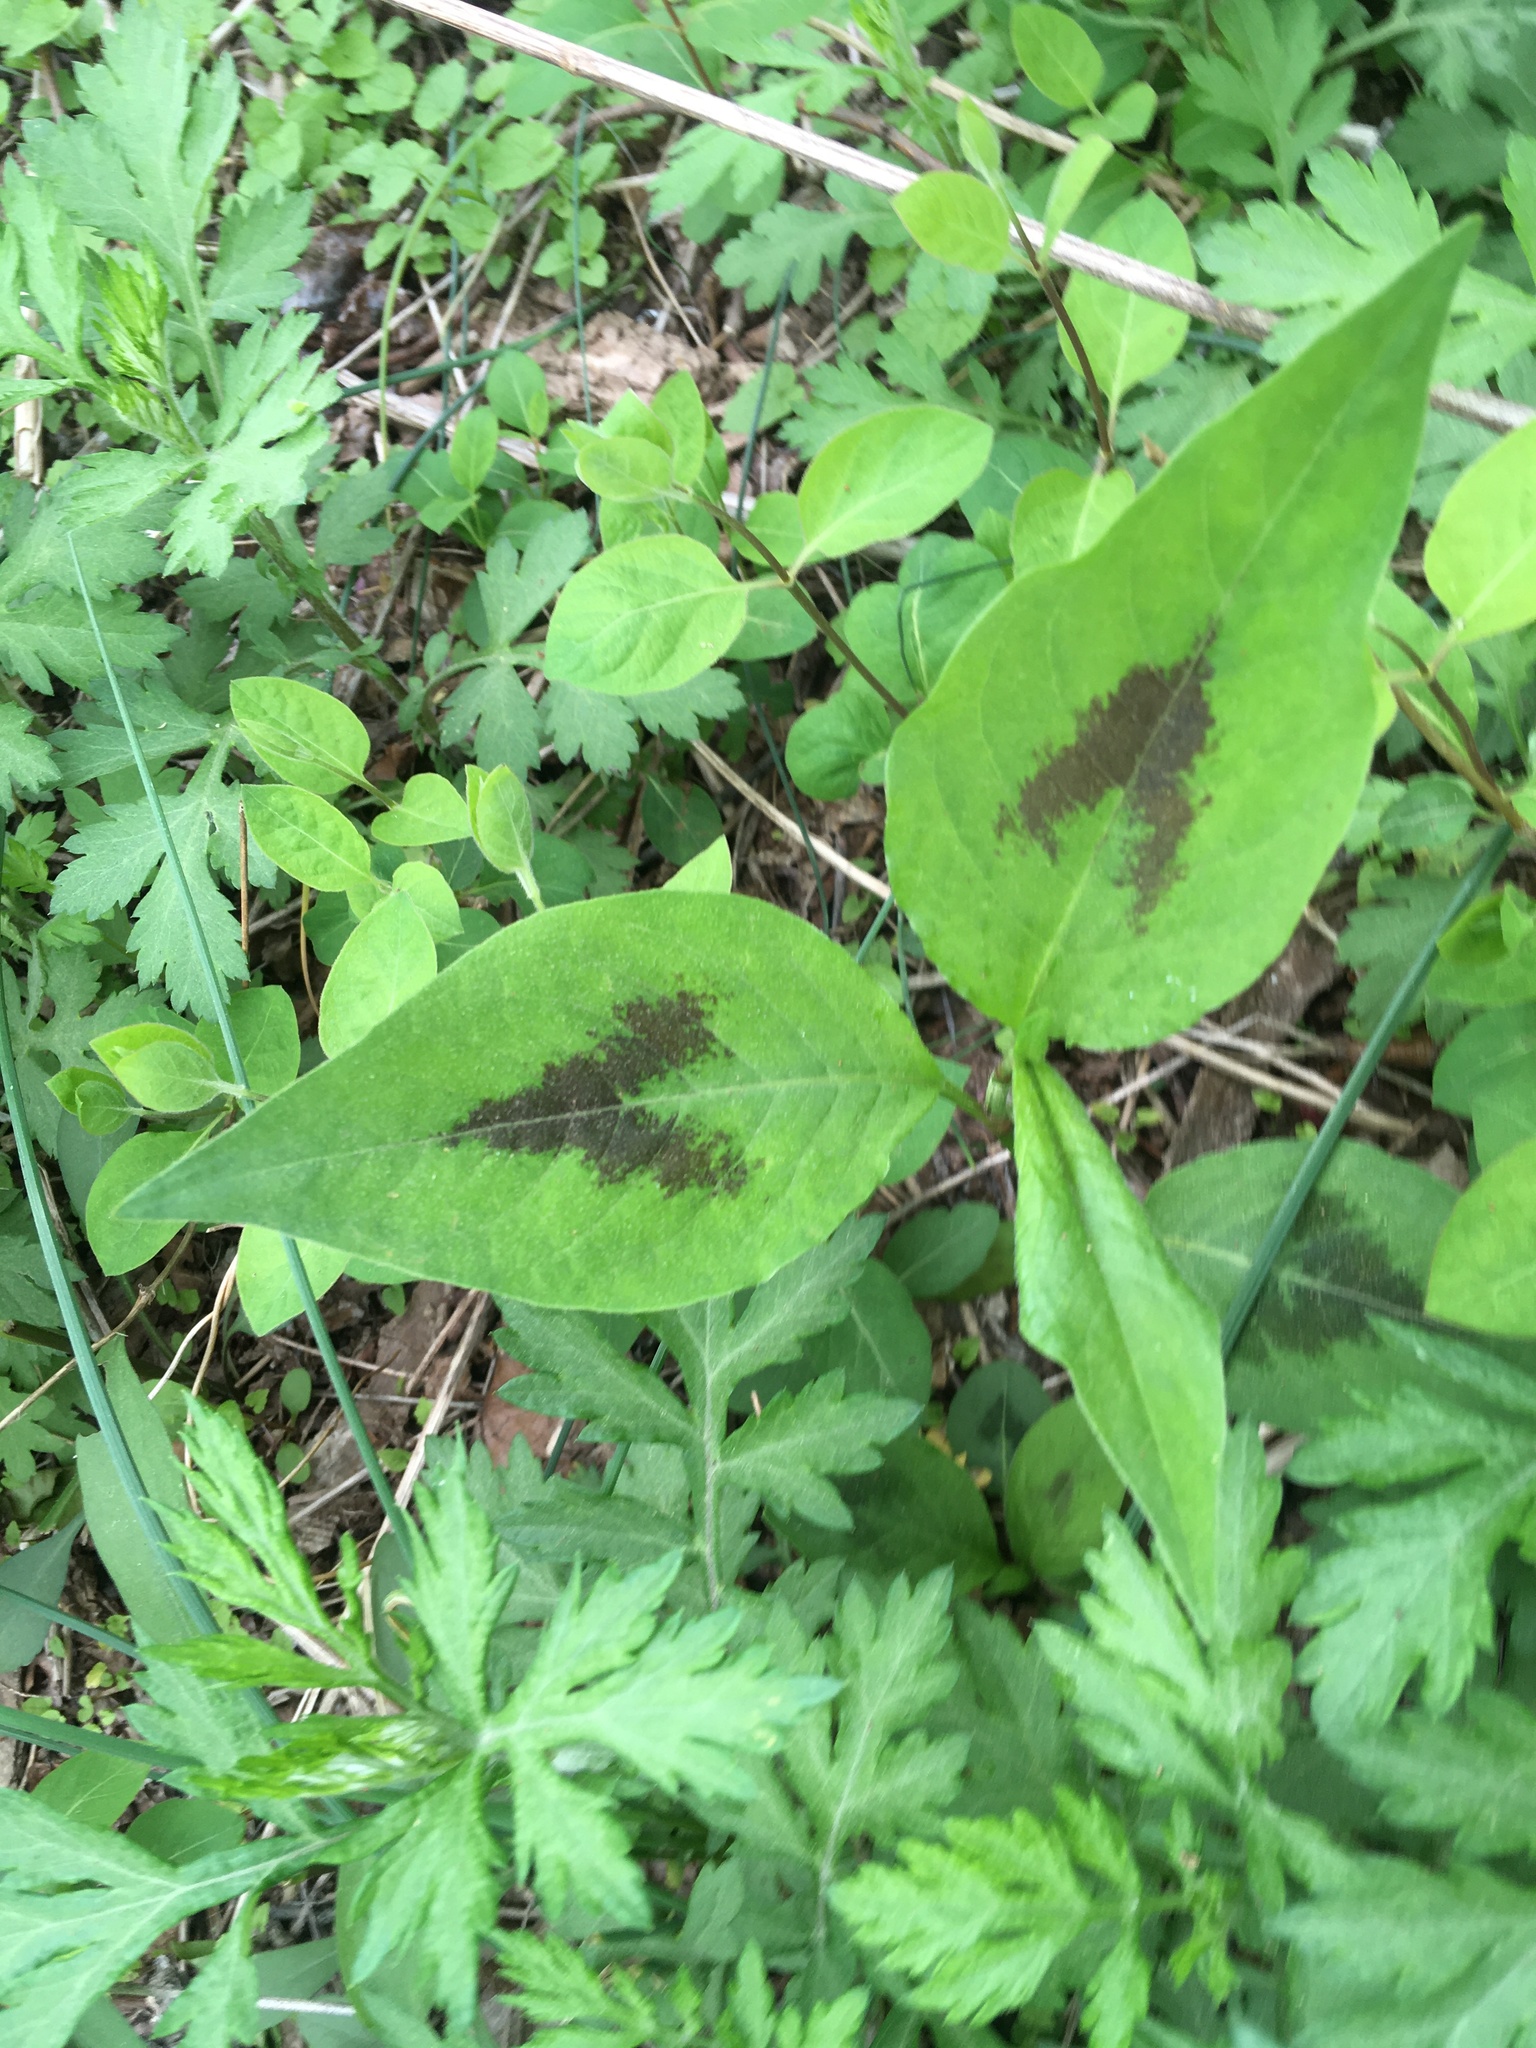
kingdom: Plantae
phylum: Tracheophyta
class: Magnoliopsida
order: Caryophyllales
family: Polygonaceae
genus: Persicaria
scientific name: Persicaria virginiana
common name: Jumpseed
